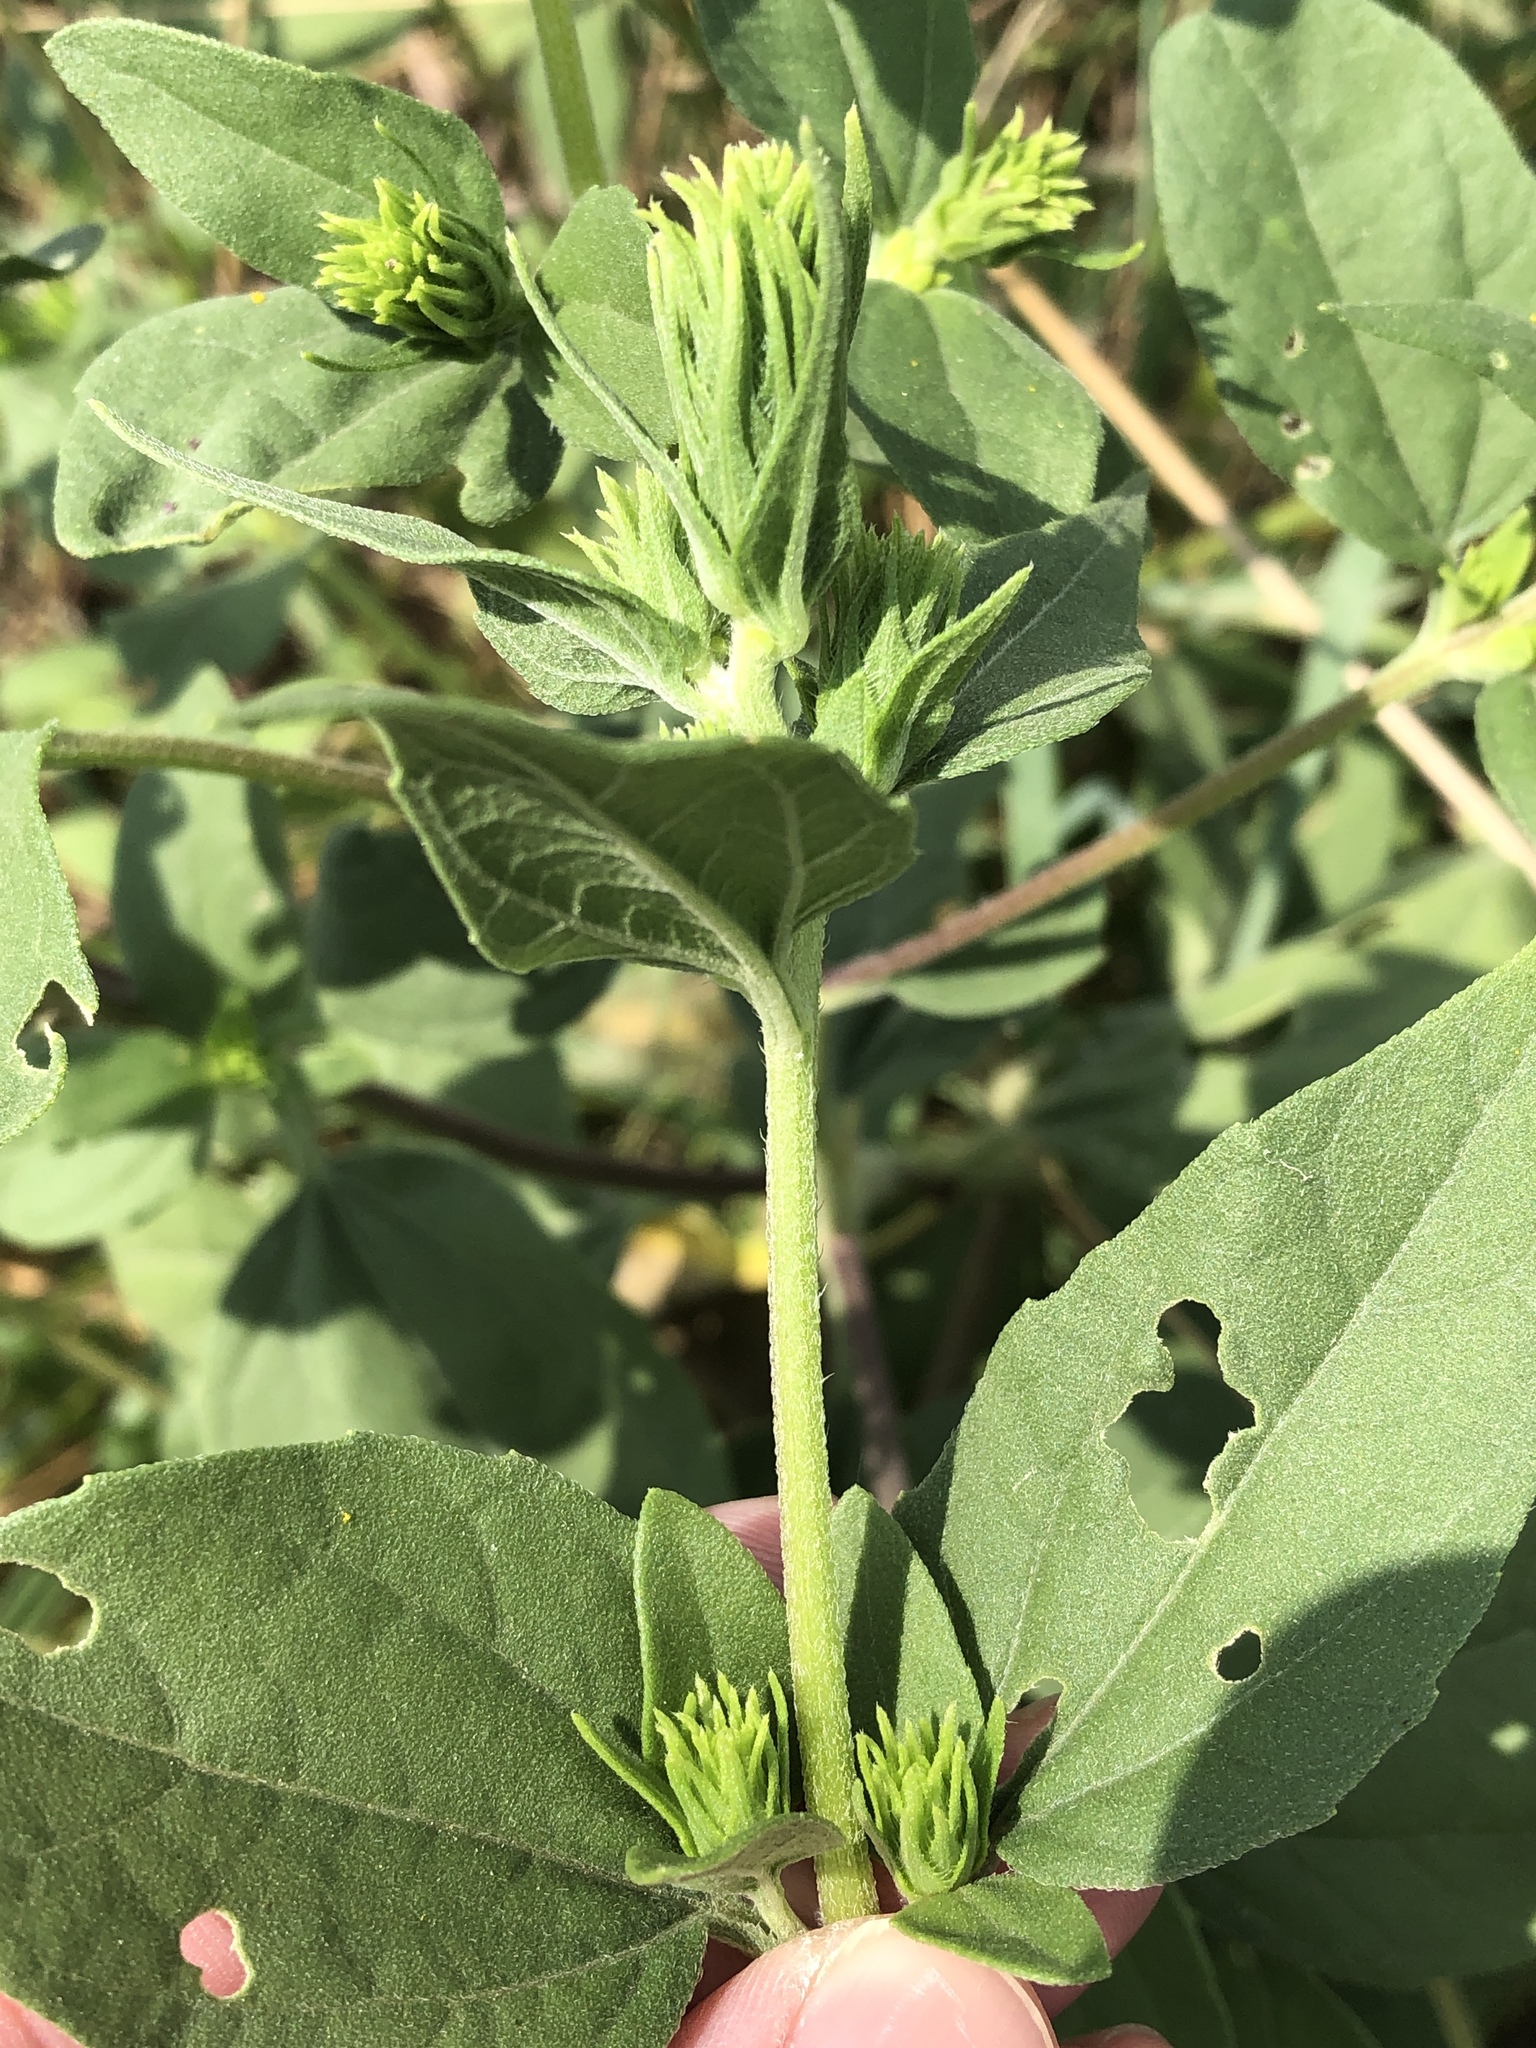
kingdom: Plantae
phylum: Tracheophyta
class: Magnoliopsida
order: Asterales
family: Asteraceae
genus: Iva
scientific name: Iva annua
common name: Marsh-elder
